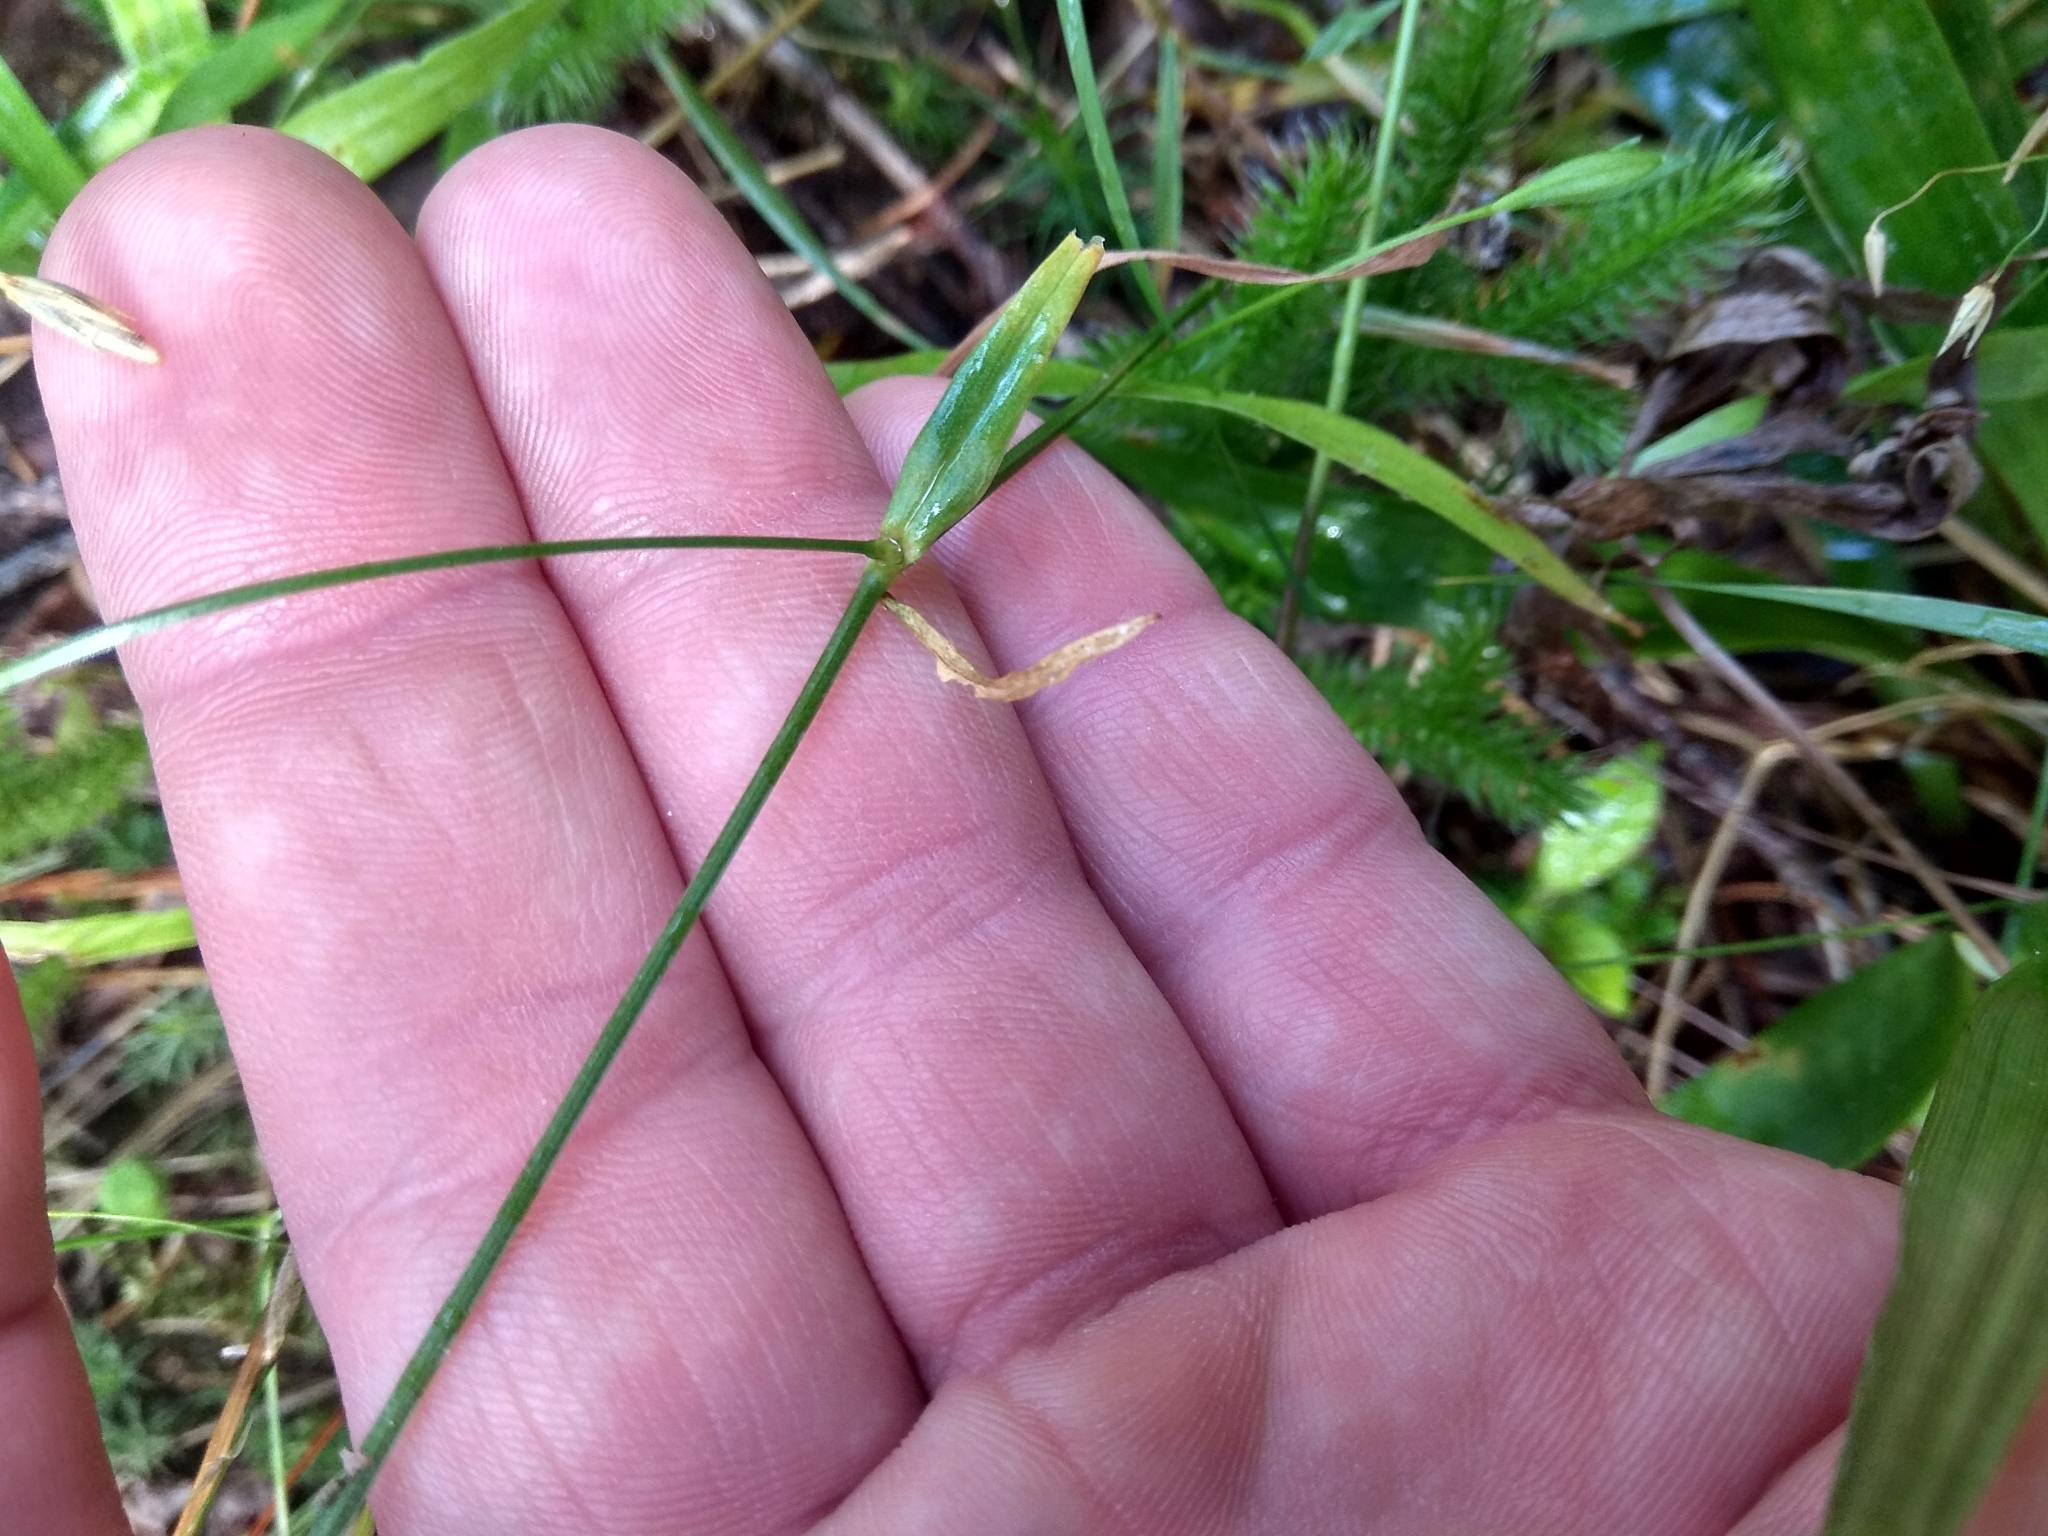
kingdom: Plantae
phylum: Tracheophyta
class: Magnoliopsida
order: Caryophyllales
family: Caryophyllaceae
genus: Stellaria
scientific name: Stellaria graminea
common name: Grass-like starwort
